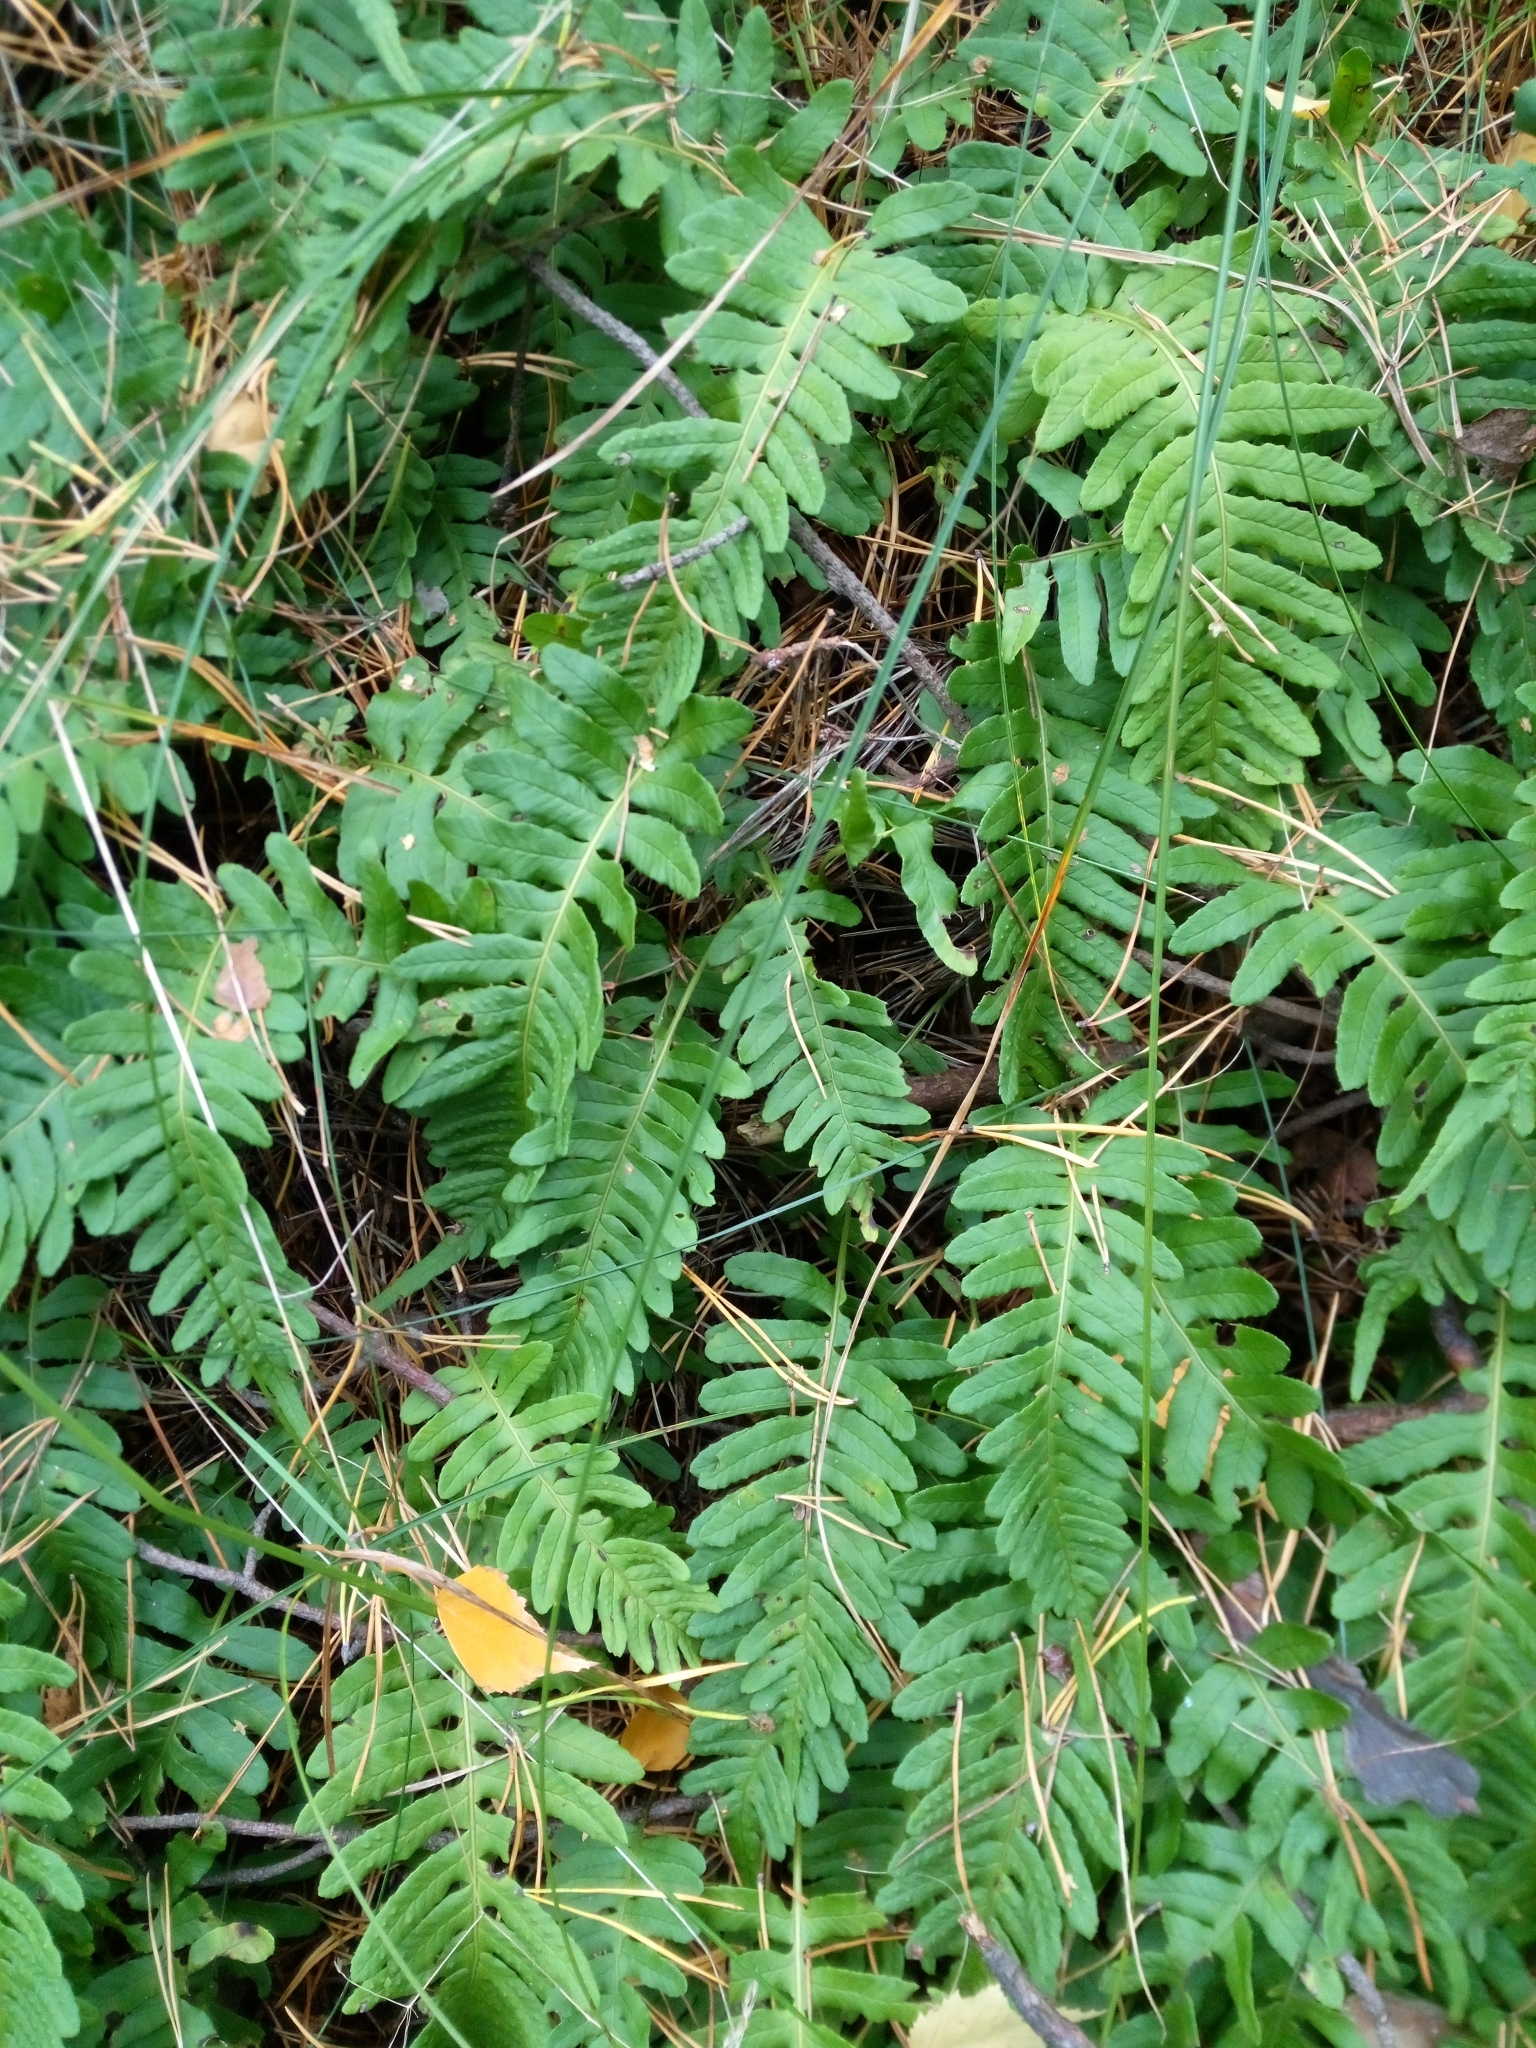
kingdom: Plantae
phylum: Tracheophyta
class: Polypodiopsida
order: Polypodiales
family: Polypodiaceae
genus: Polypodium
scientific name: Polypodium vulgare
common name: Common polypody
